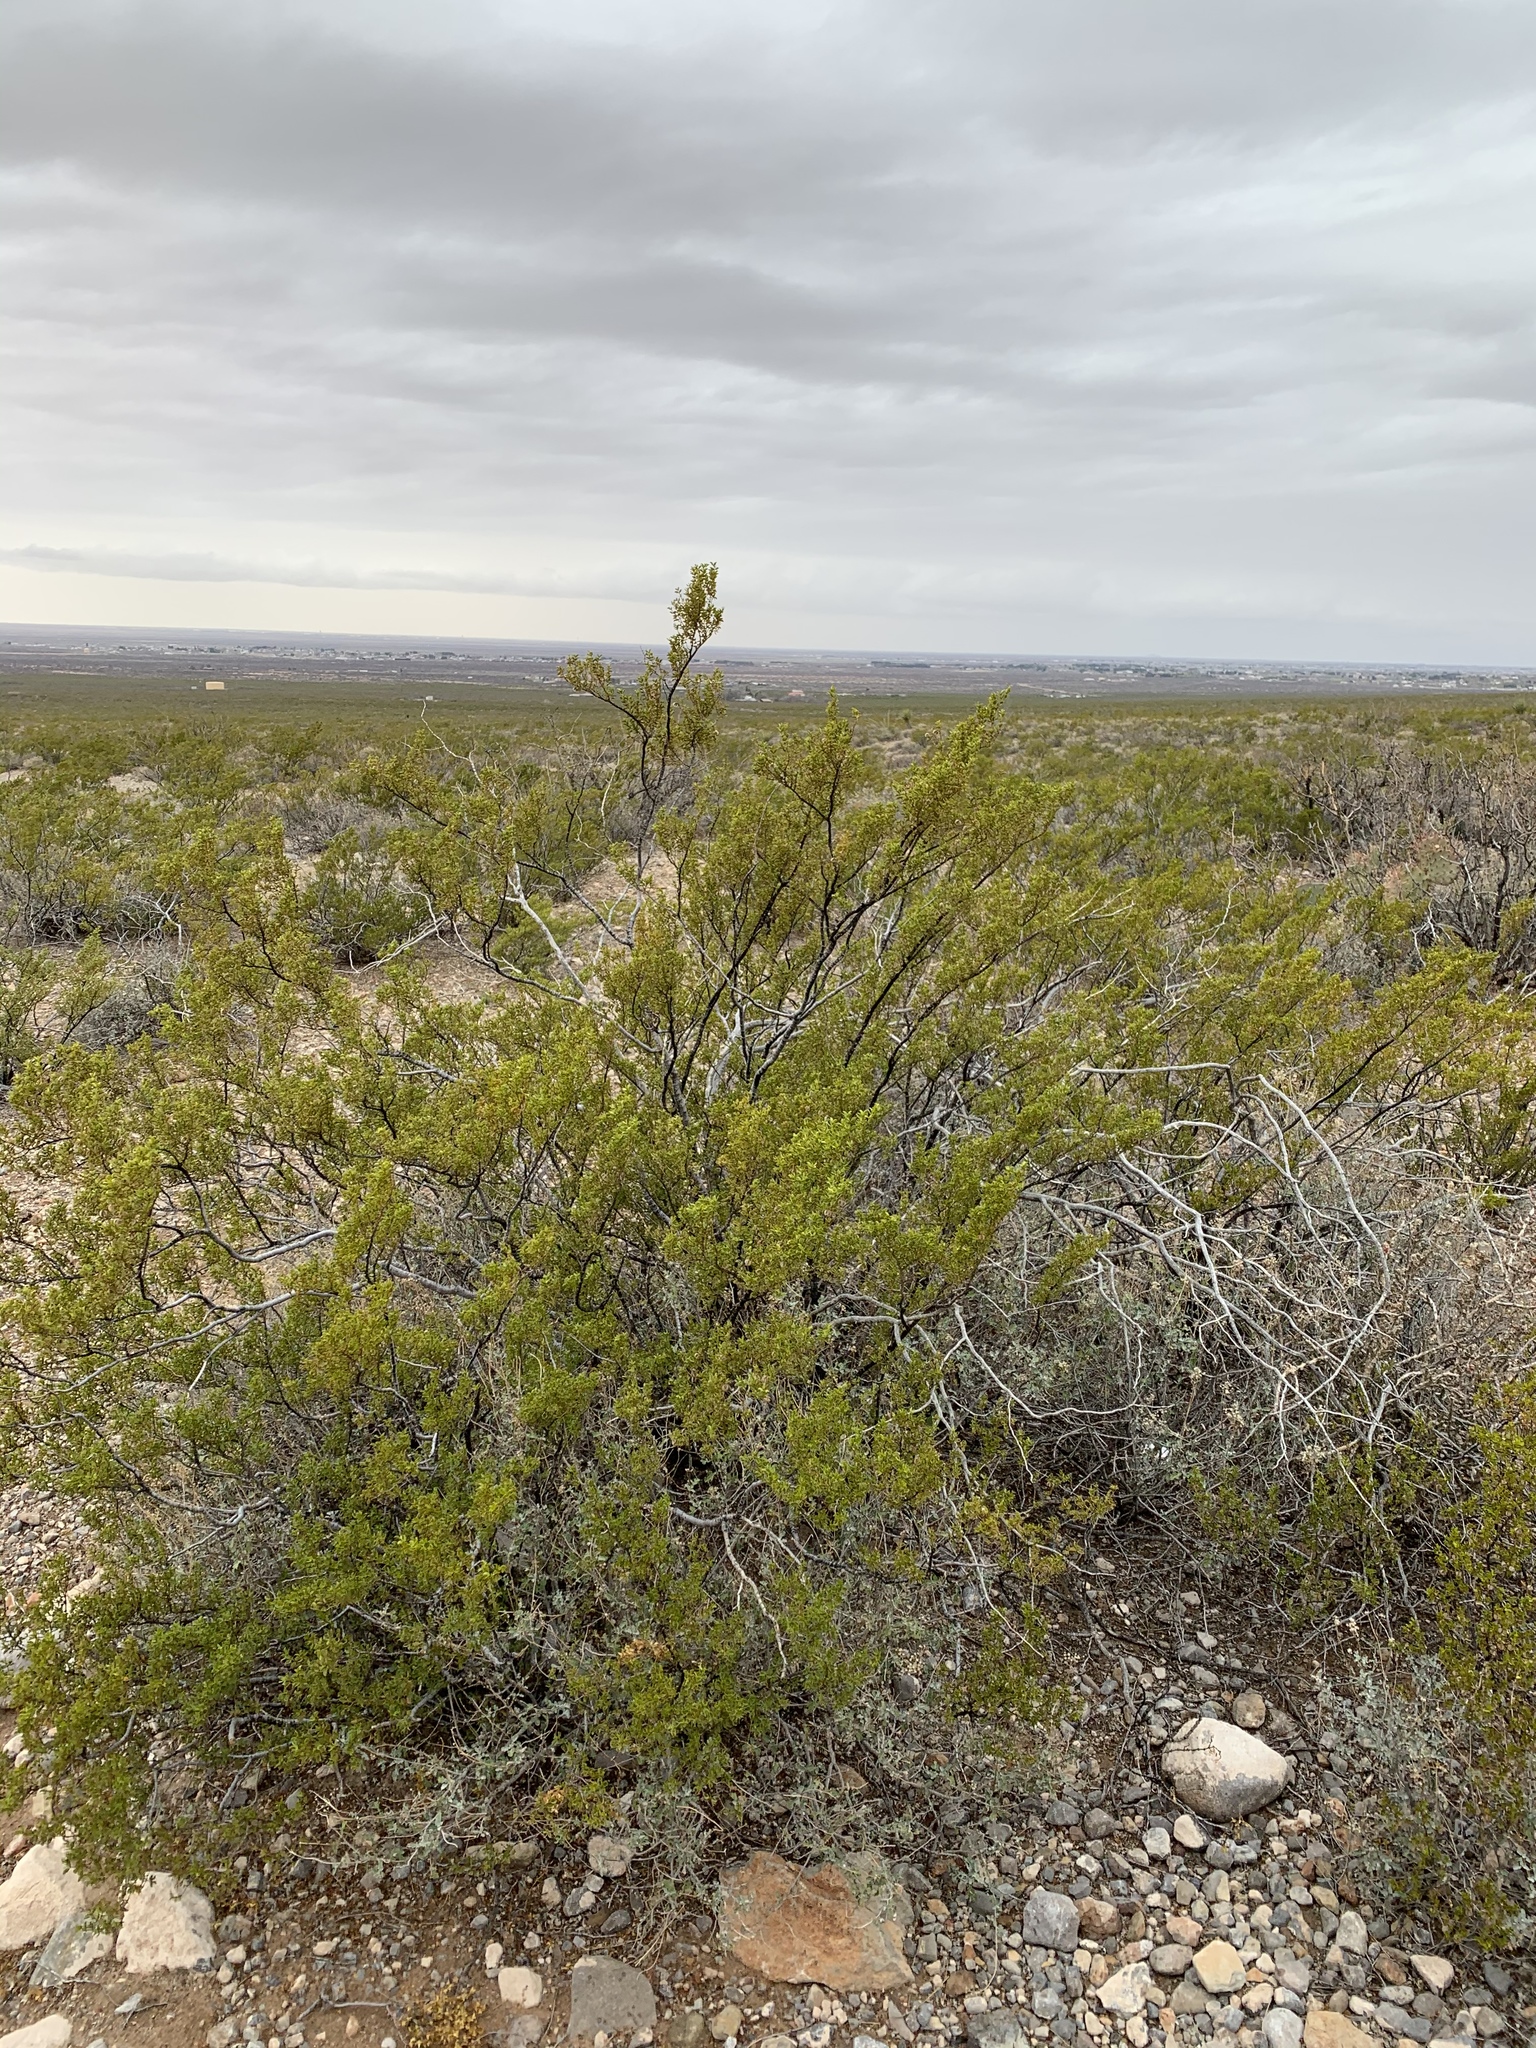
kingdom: Plantae
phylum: Tracheophyta
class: Magnoliopsida
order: Zygophyllales
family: Zygophyllaceae
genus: Larrea
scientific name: Larrea tridentata
